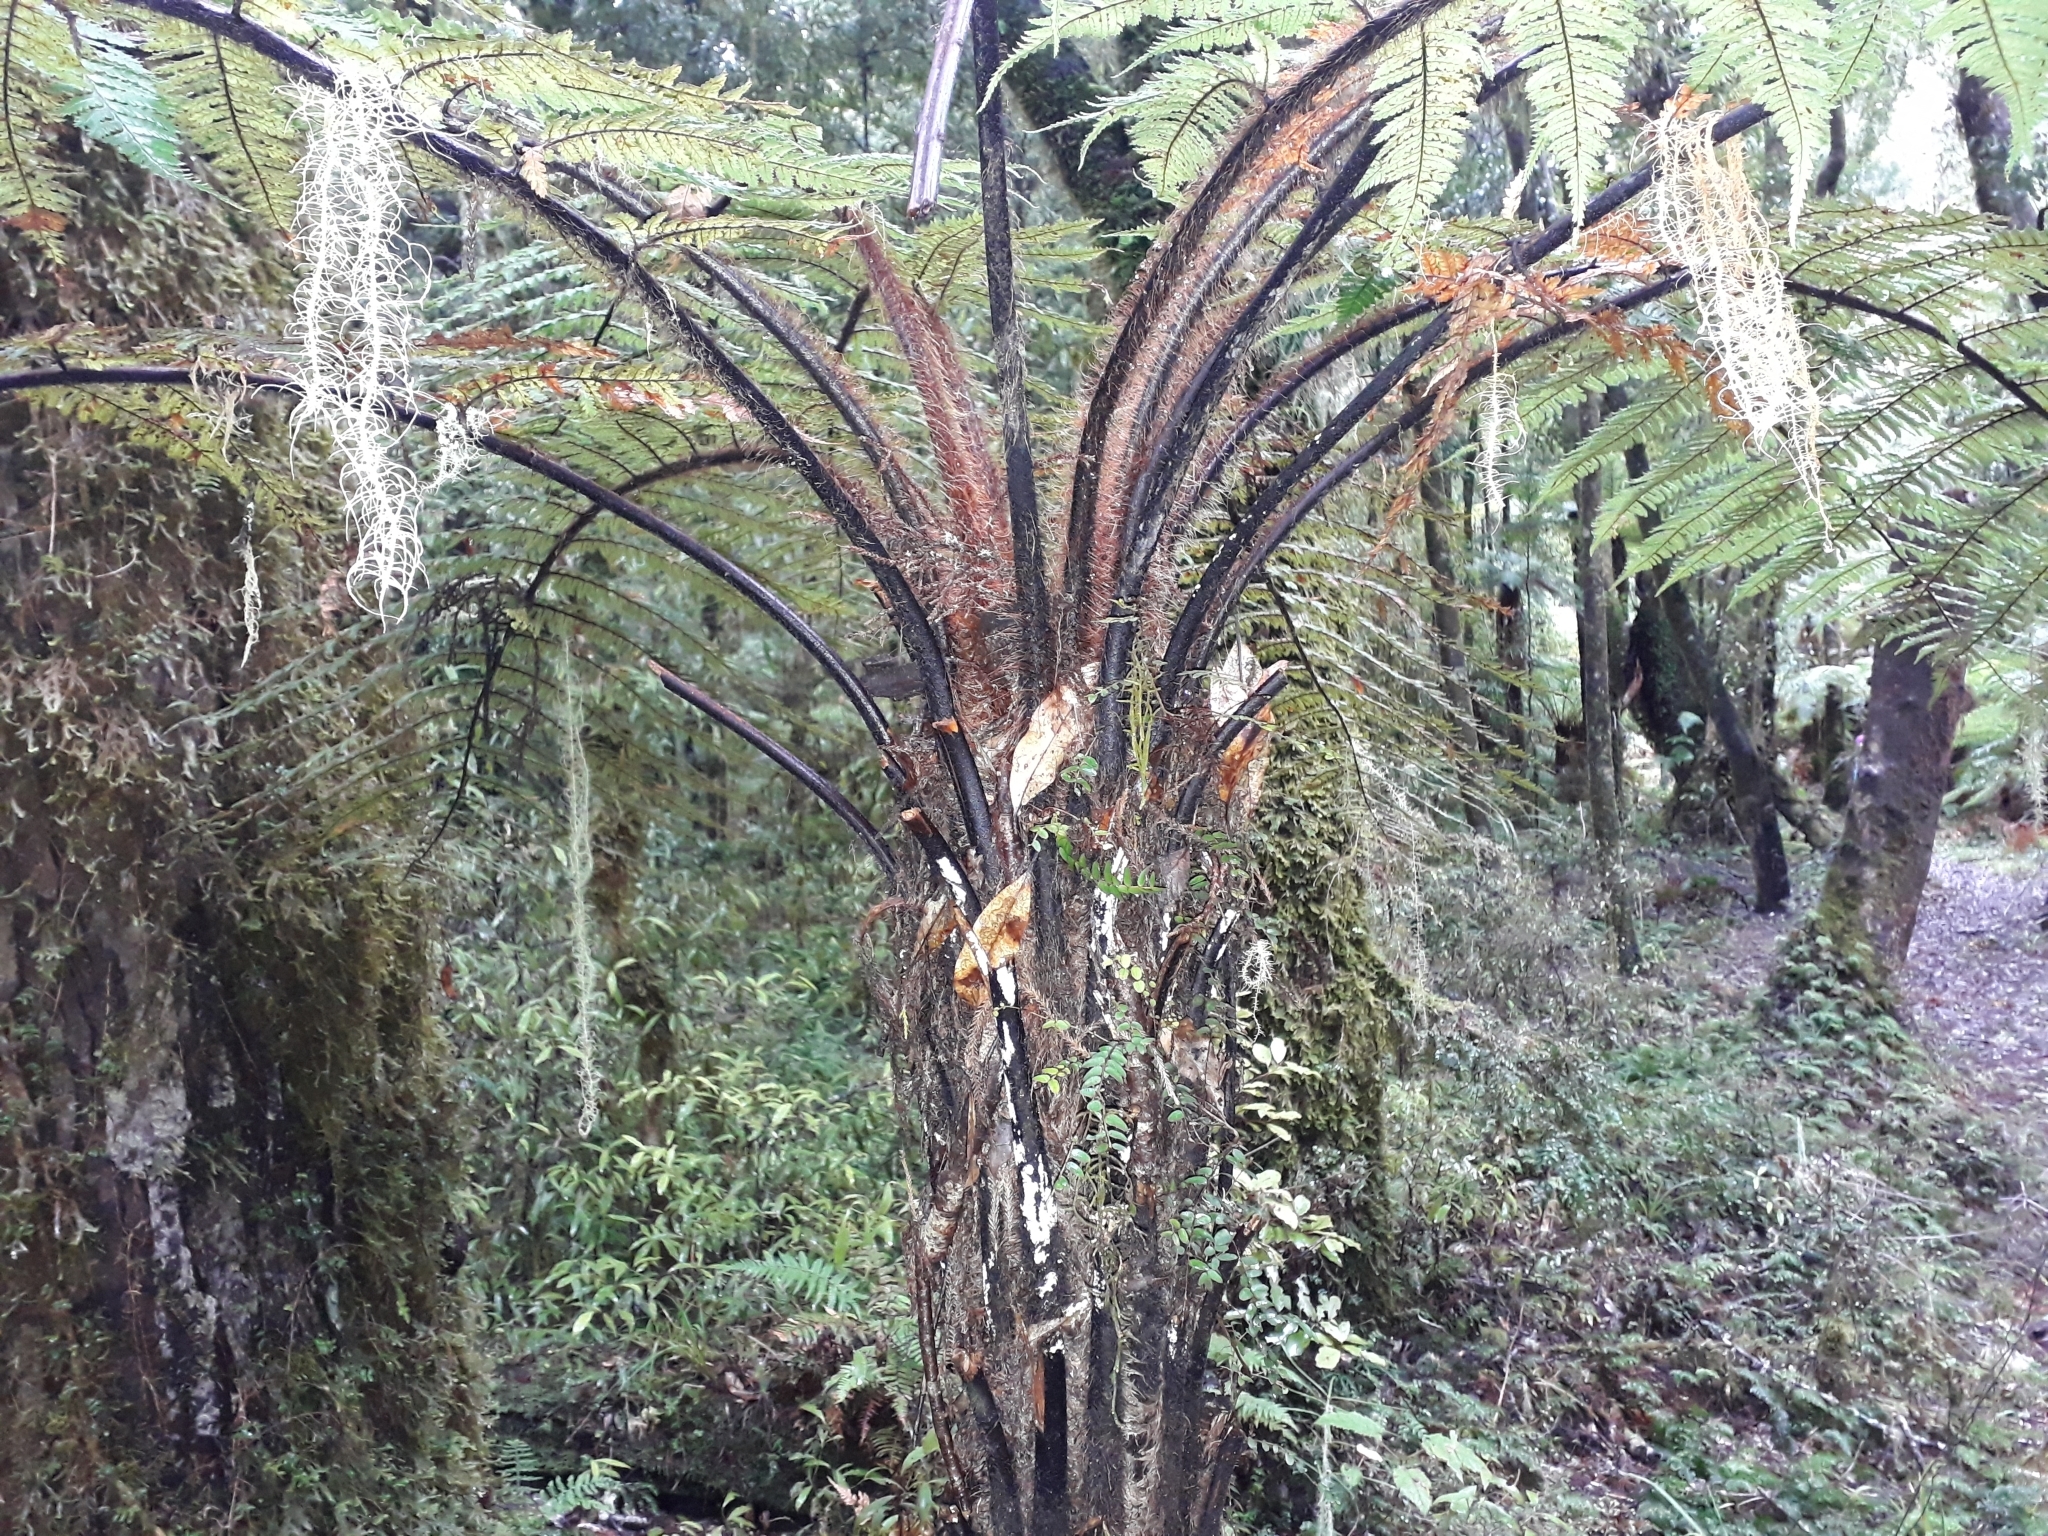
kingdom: Plantae
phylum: Tracheophyta
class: Polypodiopsida
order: Cyatheales
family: Dicksoniaceae
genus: Dicksonia
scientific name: Dicksonia squarrosa
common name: Hard treefern
